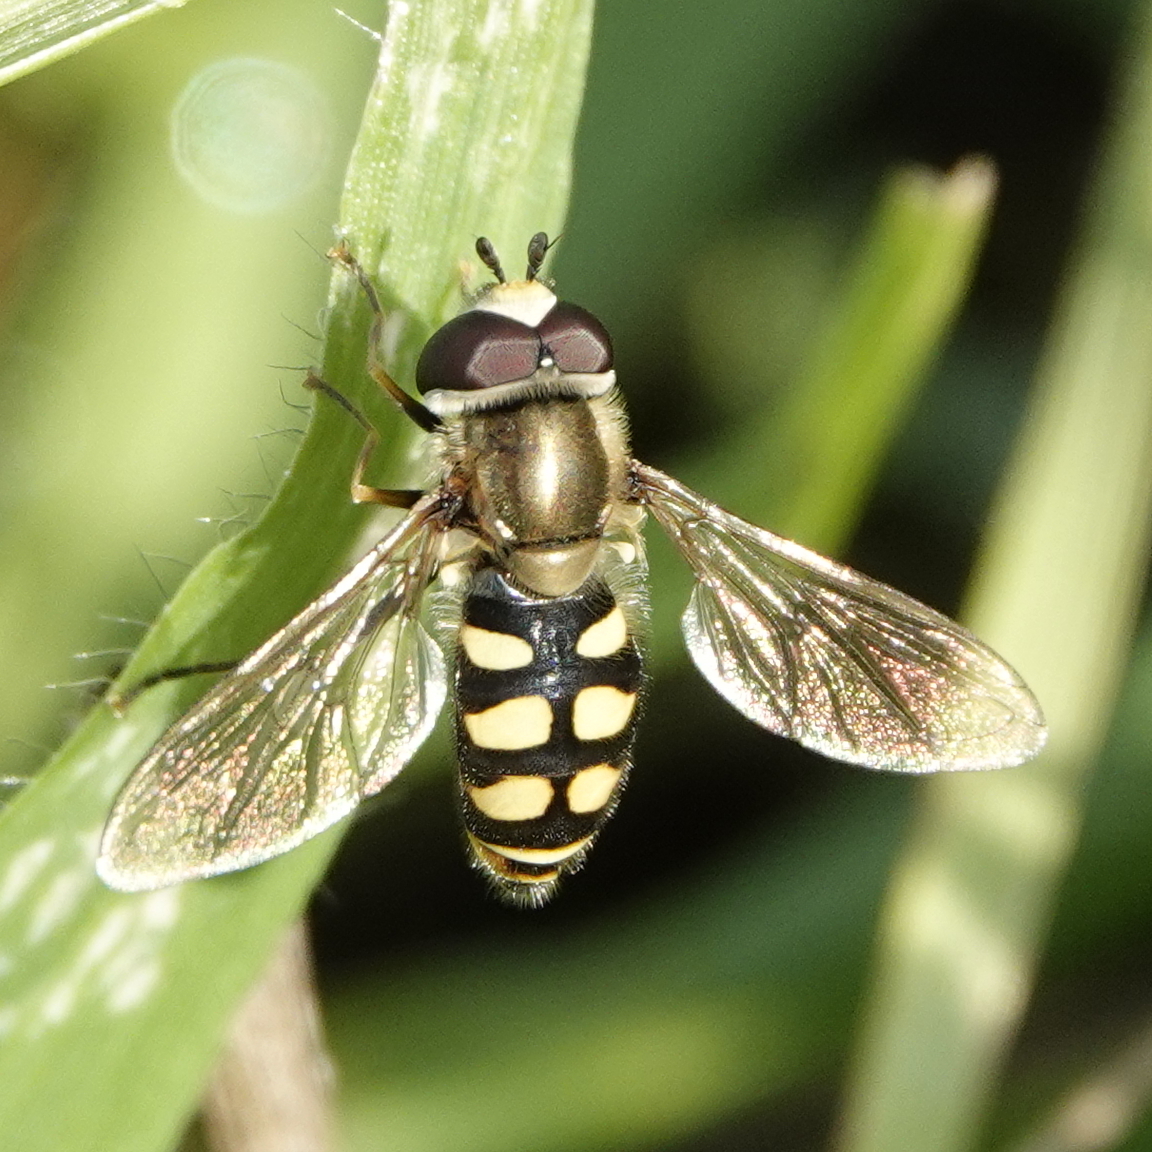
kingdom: Animalia
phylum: Arthropoda
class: Insecta
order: Diptera
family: Syrphidae
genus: Eupeodes
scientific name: Eupeodes corollae
